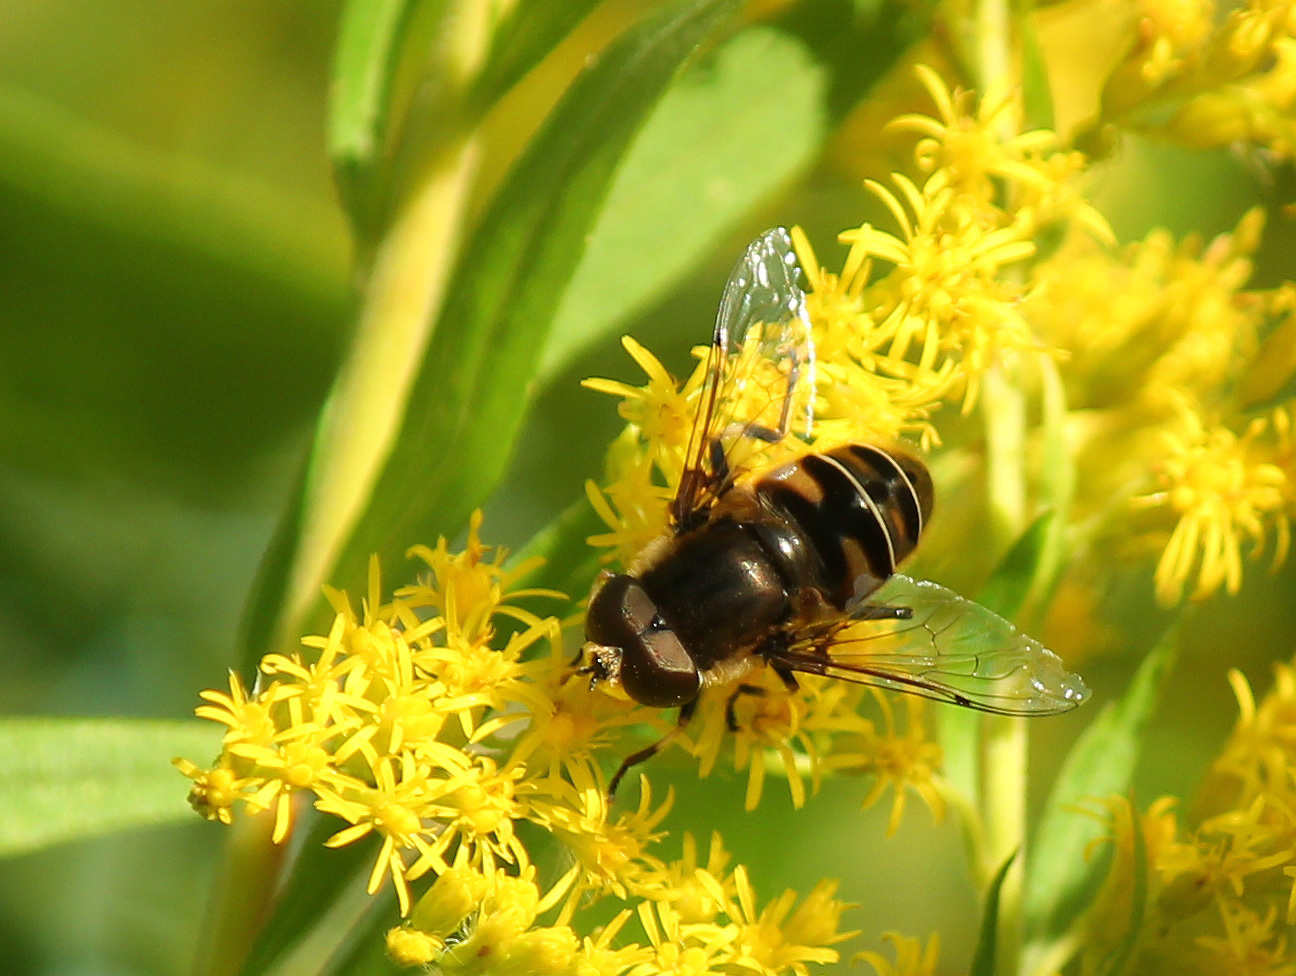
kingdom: Animalia
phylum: Arthropoda
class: Insecta
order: Diptera
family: Syrphidae
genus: Eristalis
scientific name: Eristalis dimidiata
